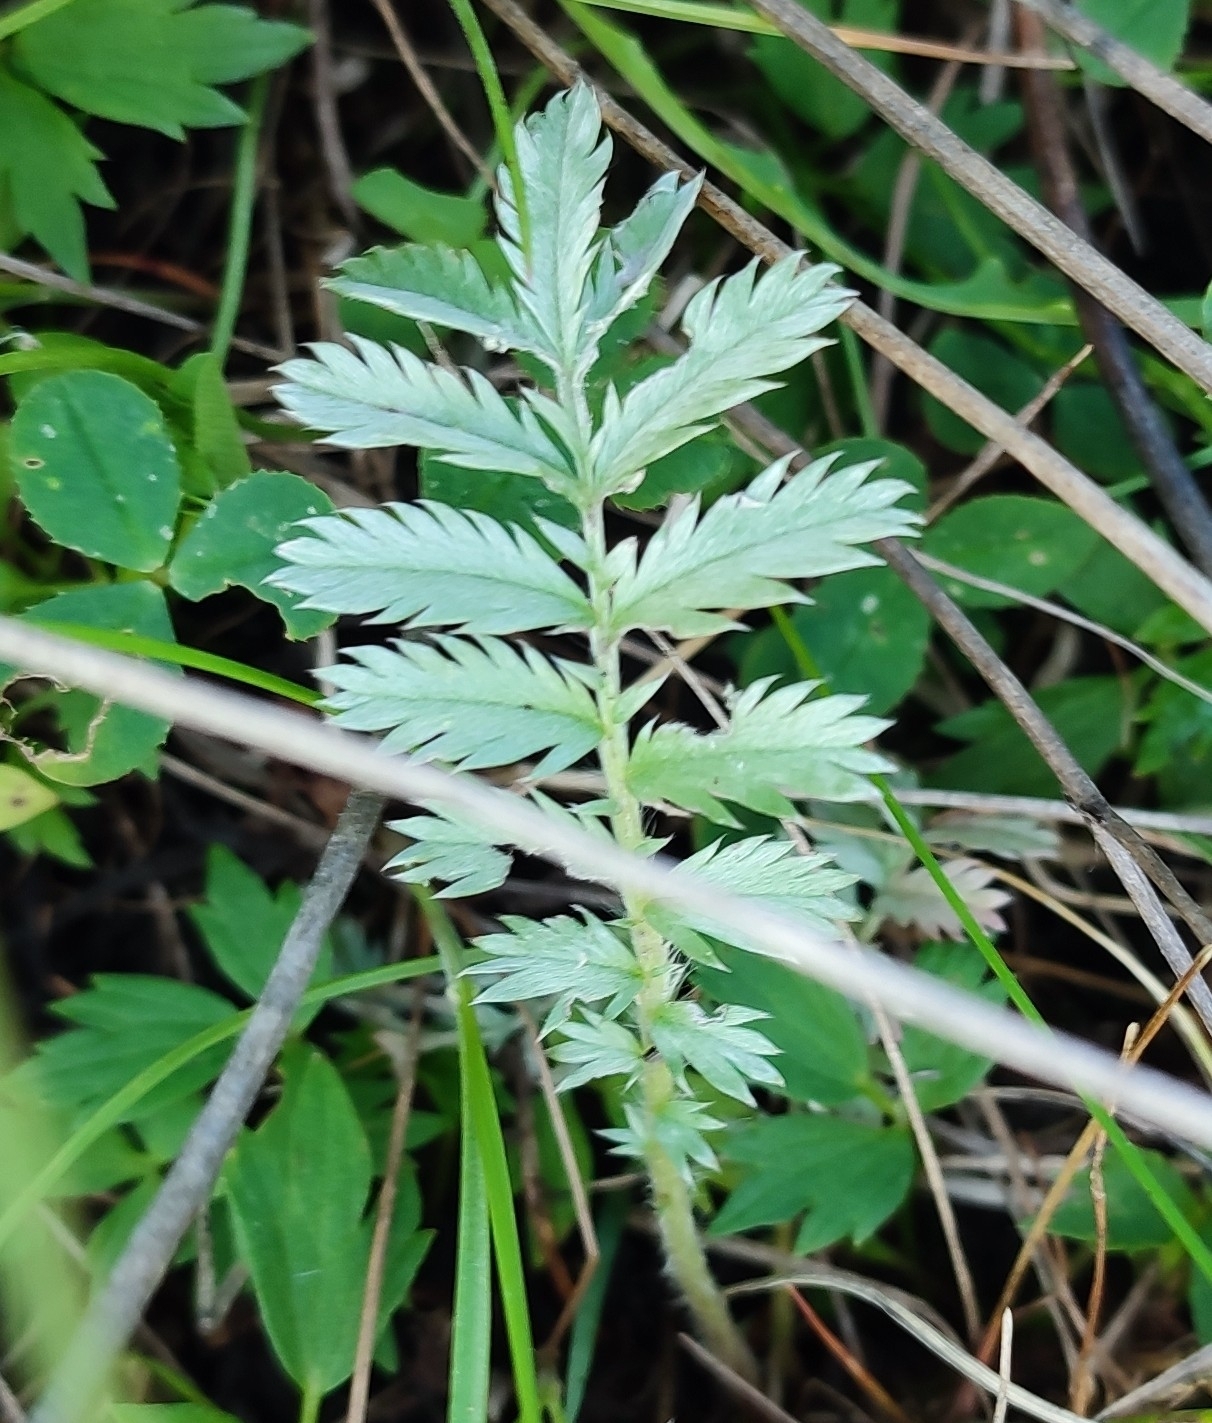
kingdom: Plantae
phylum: Tracheophyta
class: Magnoliopsida
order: Rosales
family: Rosaceae
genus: Argentina
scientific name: Argentina anserina
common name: Common silverweed
